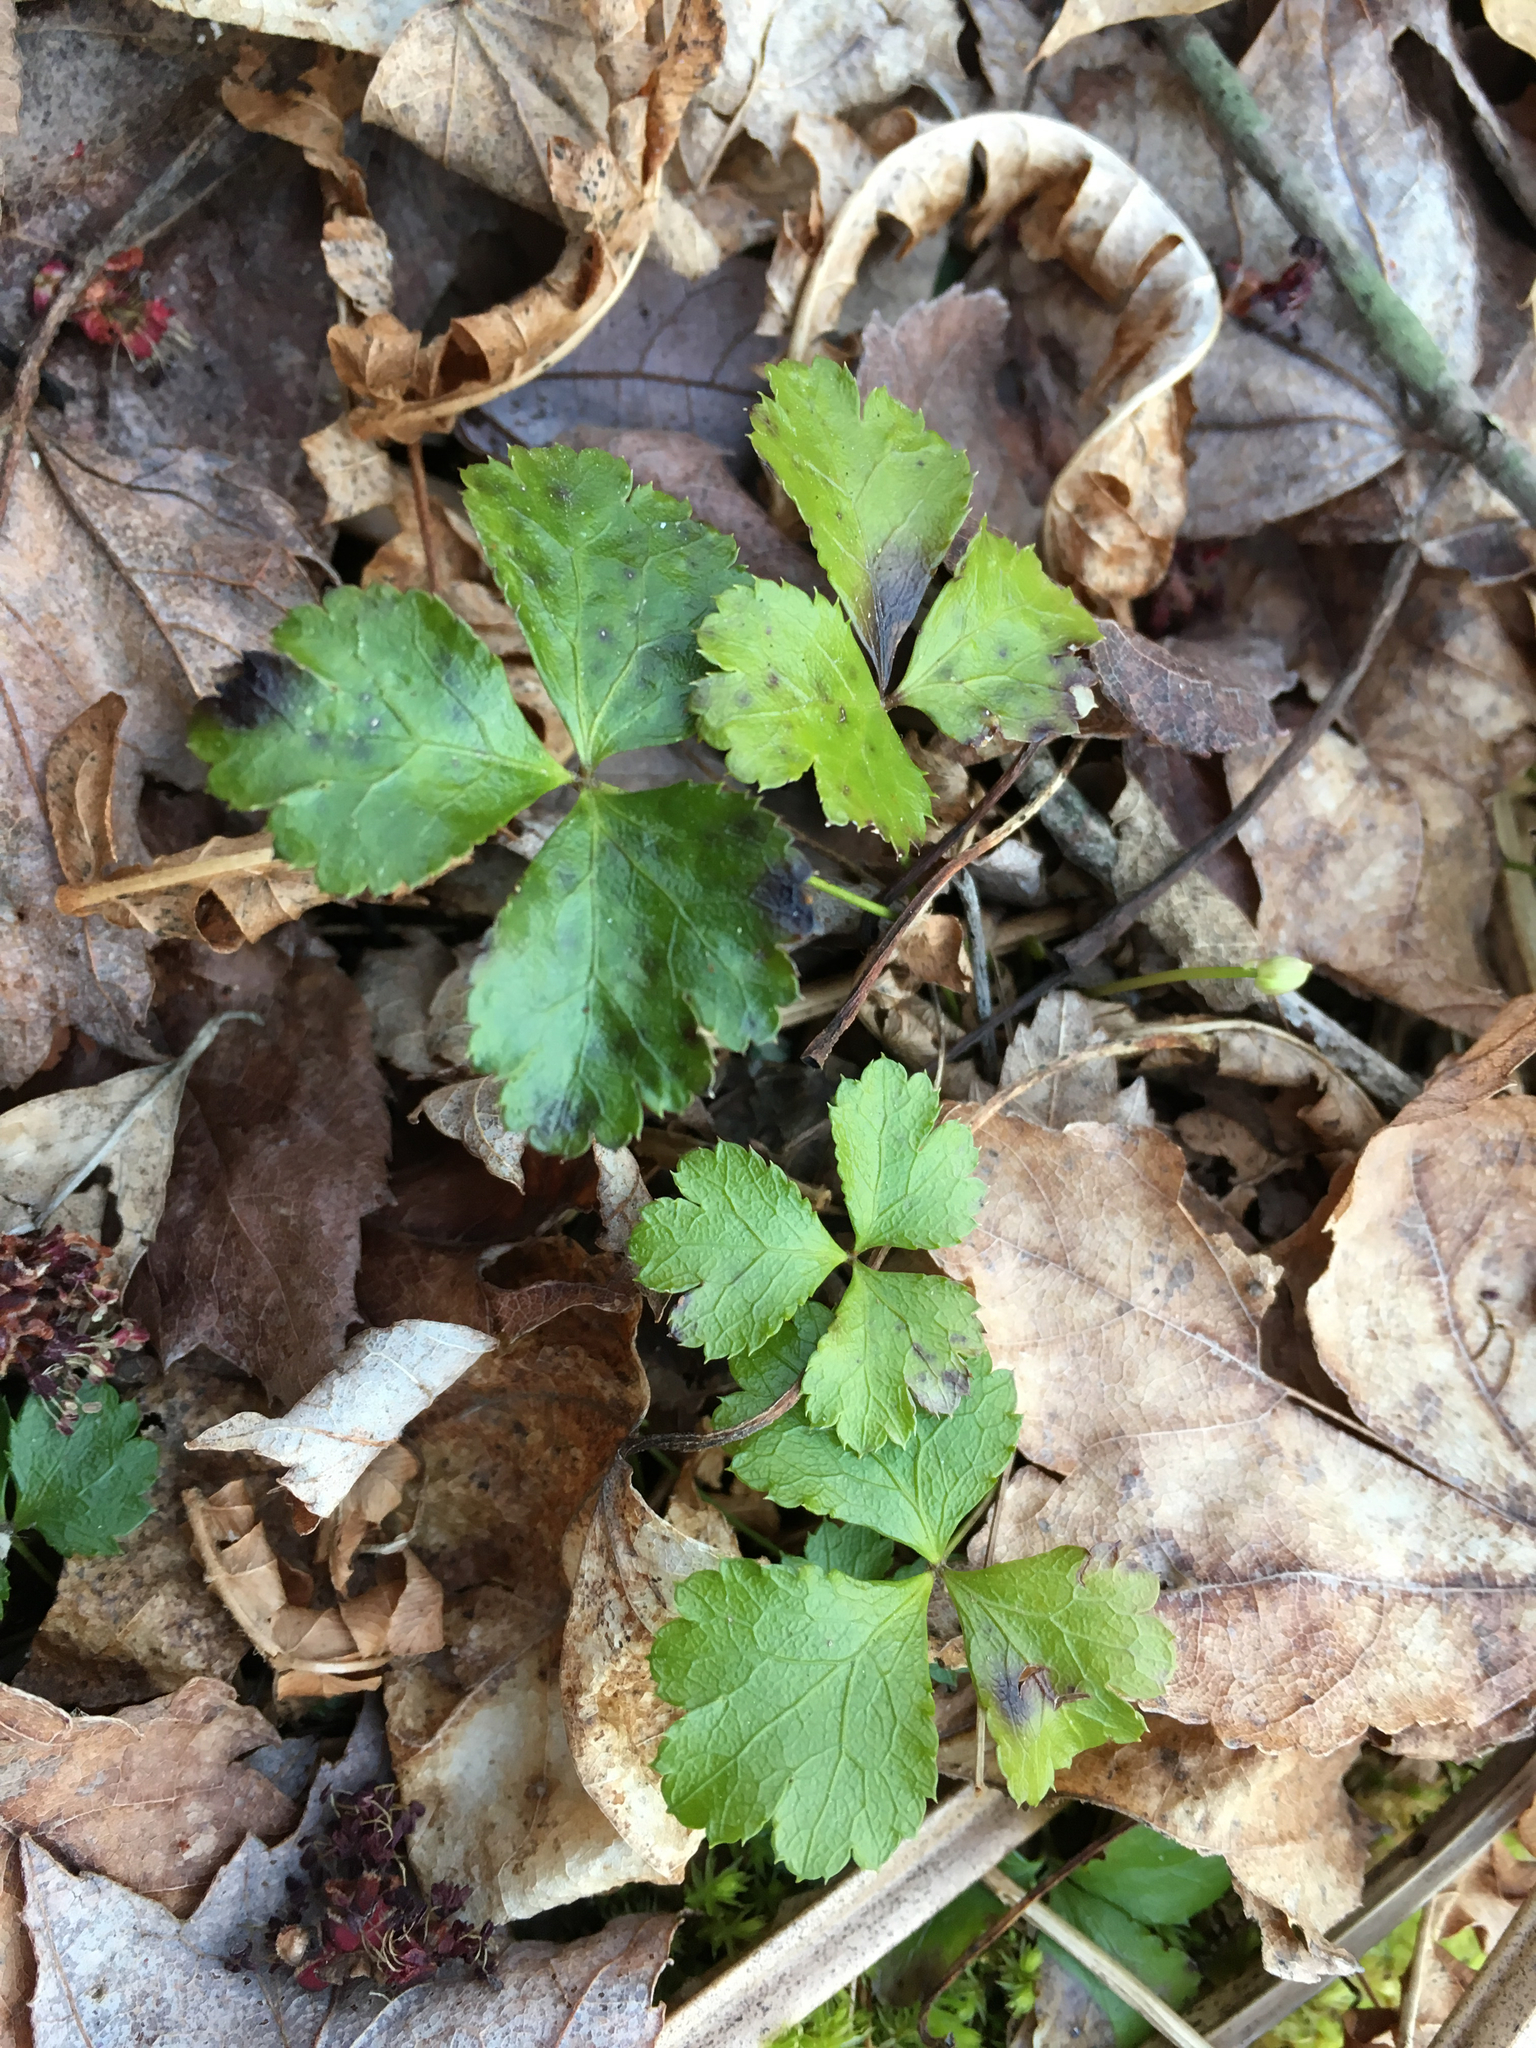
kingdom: Plantae
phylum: Tracheophyta
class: Magnoliopsida
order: Ranunculales
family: Ranunculaceae
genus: Coptis
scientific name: Coptis trifolia
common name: Canker-root
